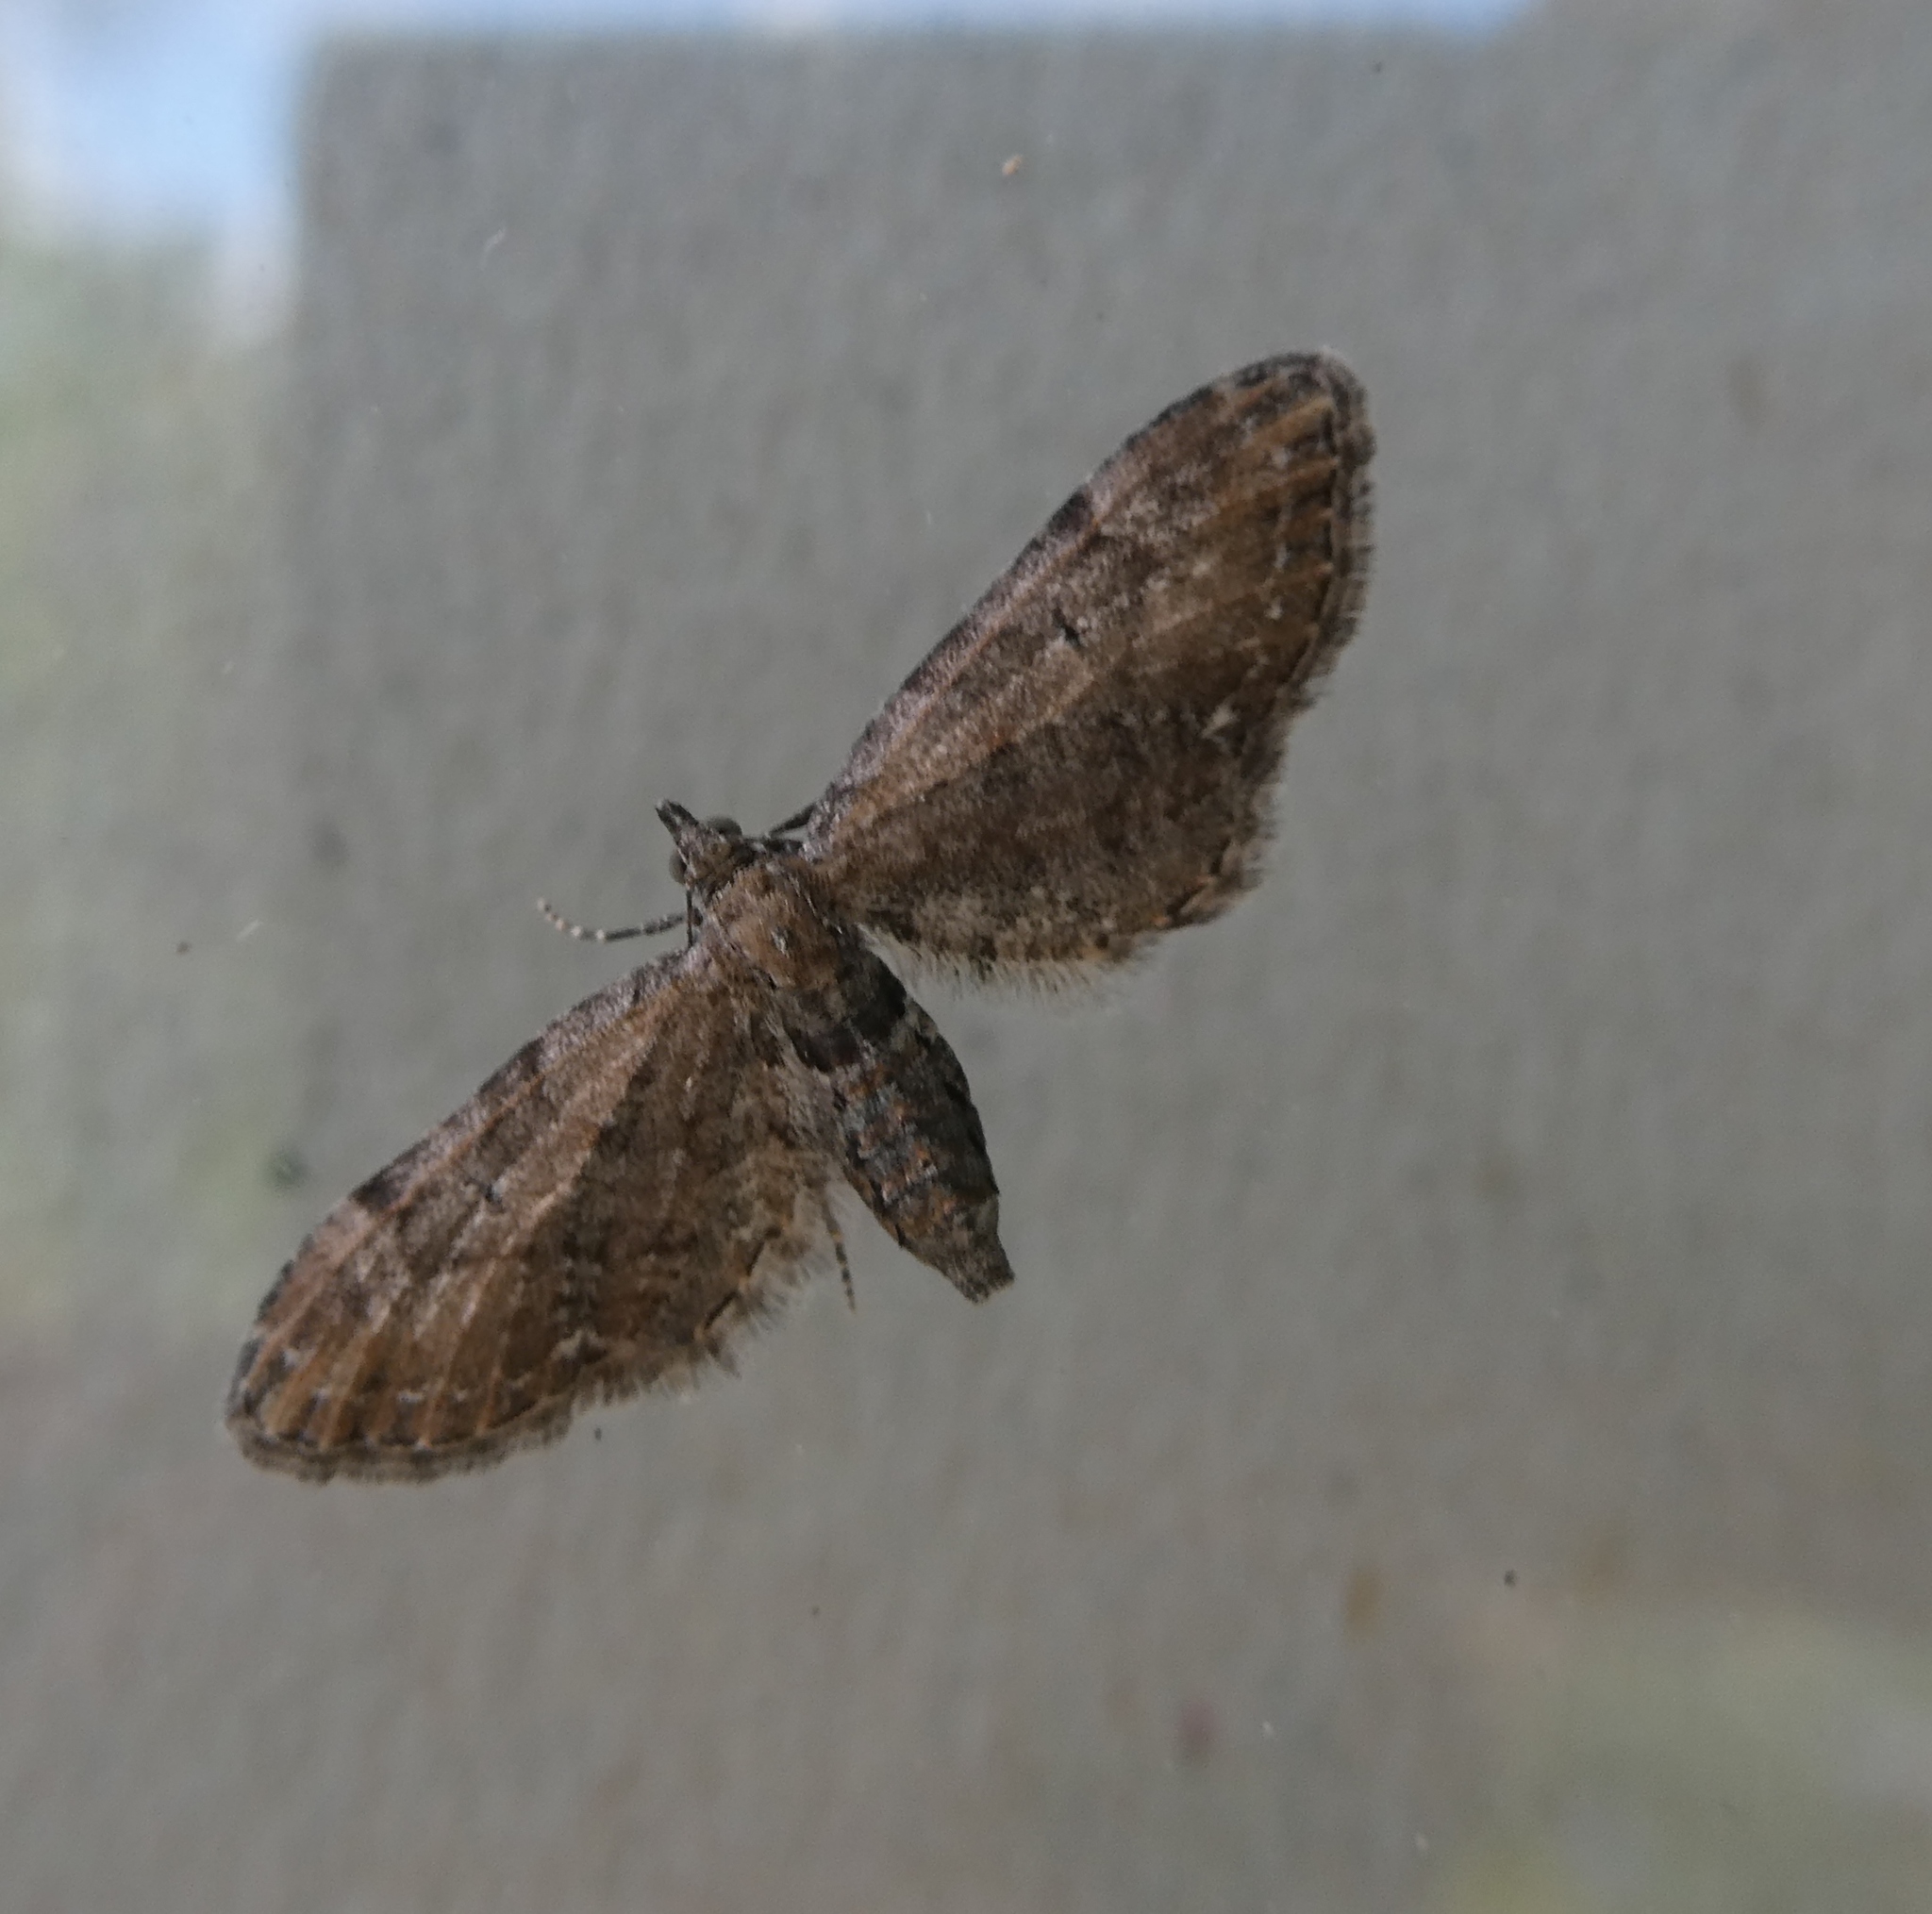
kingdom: Animalia
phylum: Arthropoda
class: Insecta
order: Lepidoptera
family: Geometridae
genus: Eupithecia
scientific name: Eupithecia vulgata
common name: Common pug
